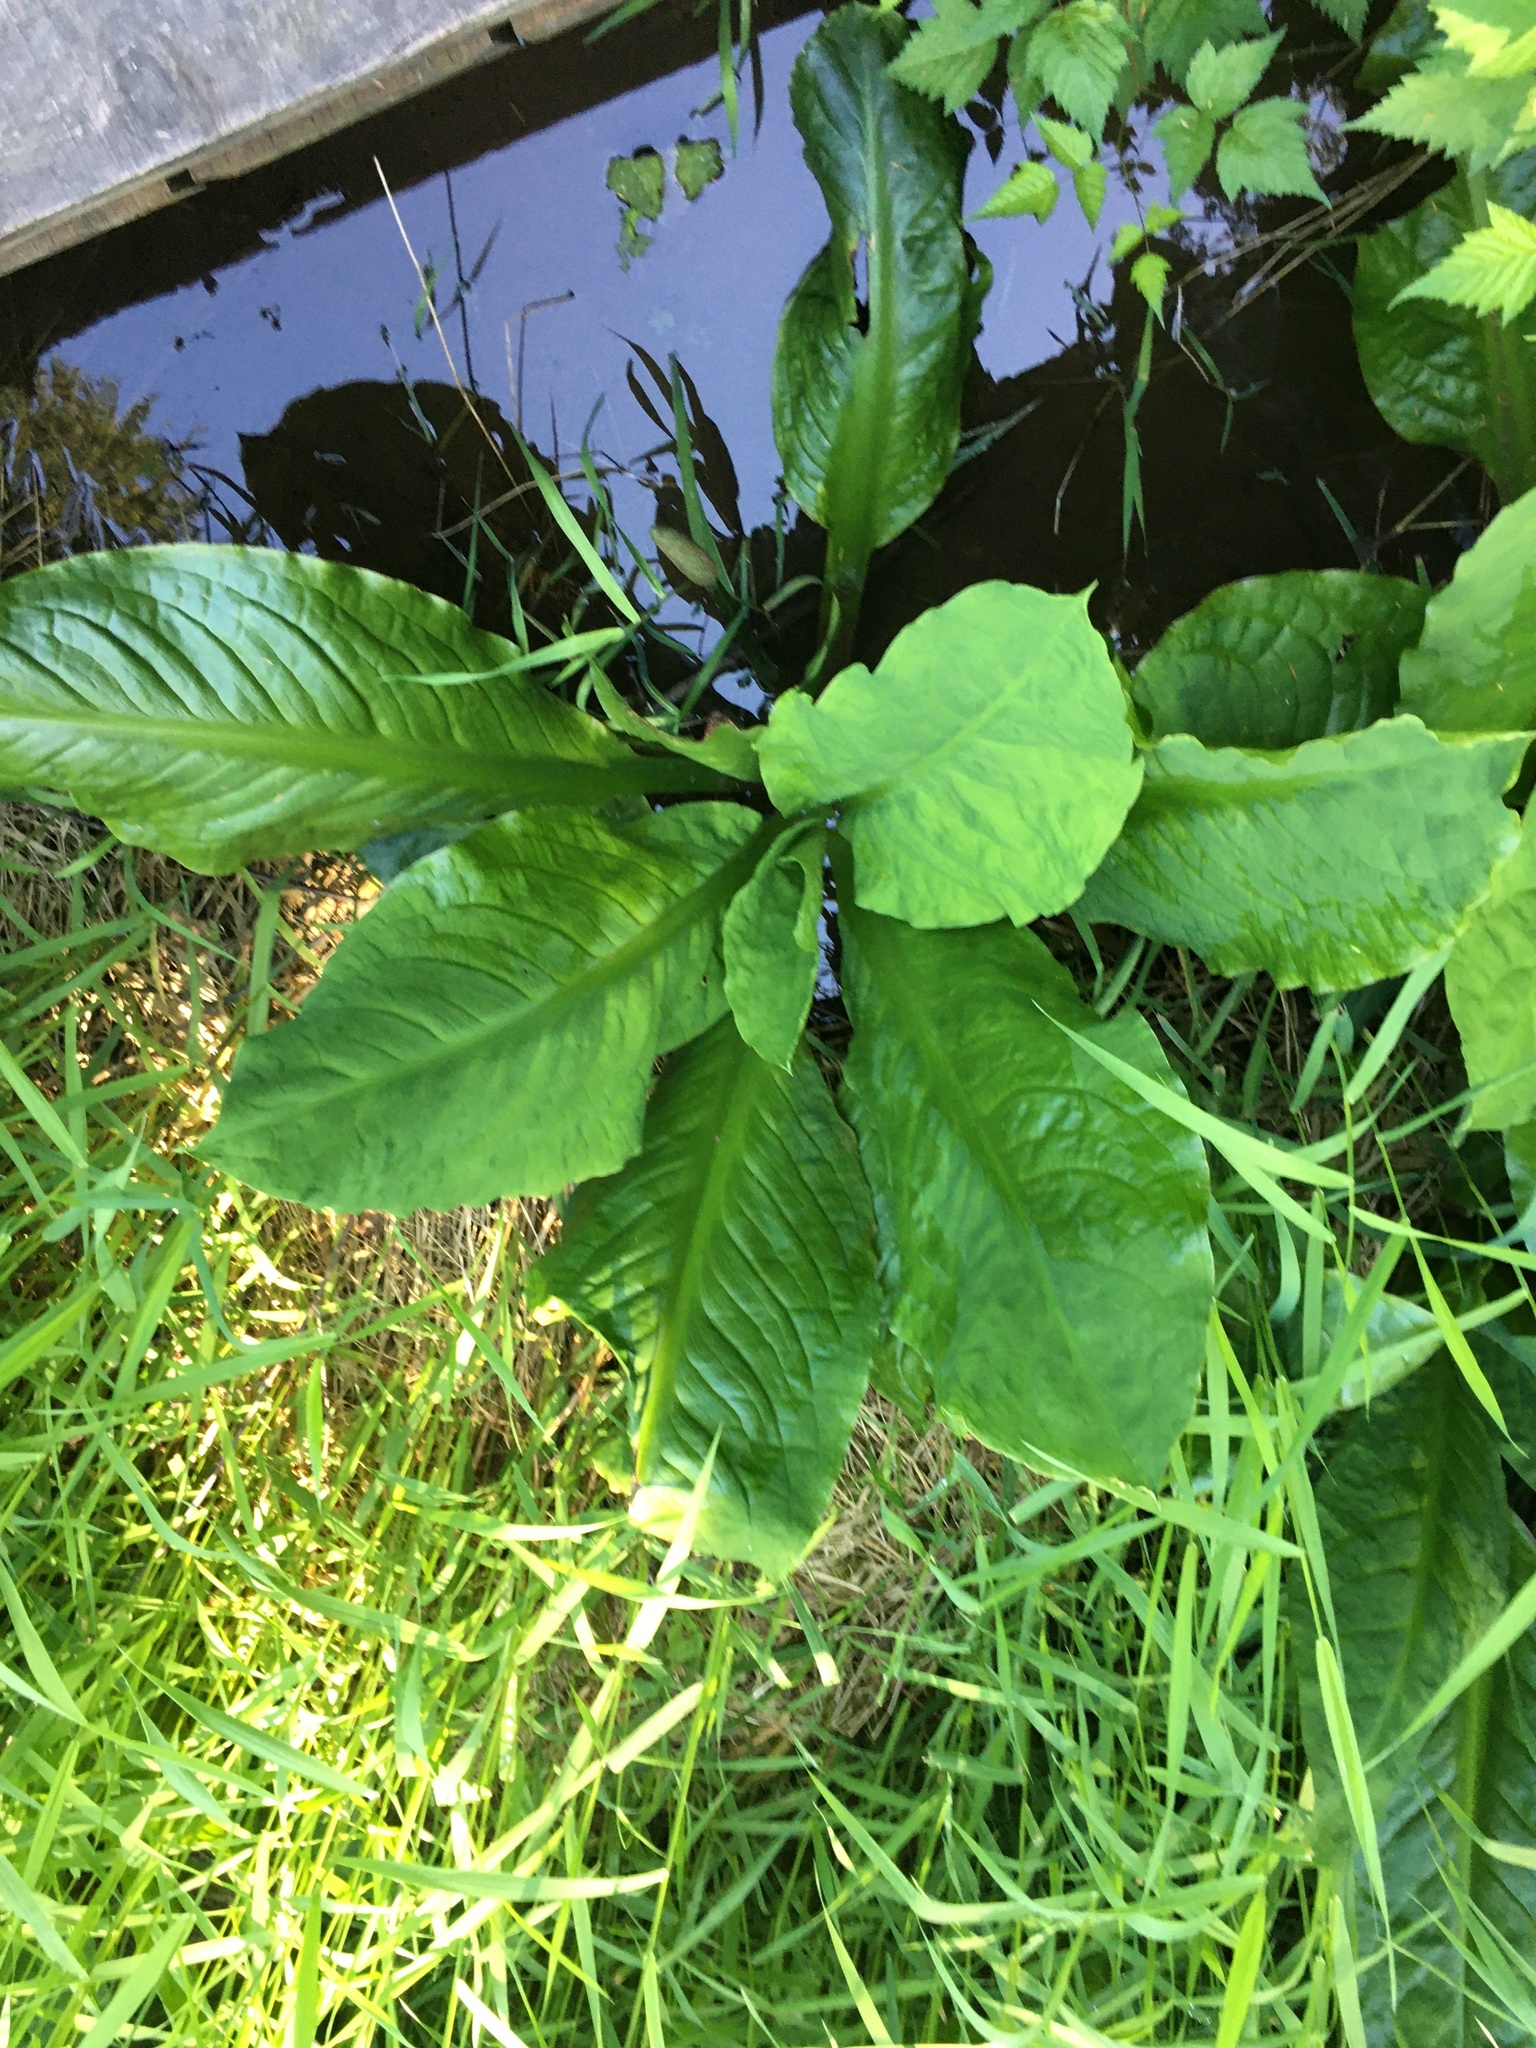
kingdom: Plantae
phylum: Tracheophyta
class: Liliopsida
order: Alismatales
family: Araceae
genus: Lysichiton
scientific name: Lysichiton americanus
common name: American skunk cabbage
